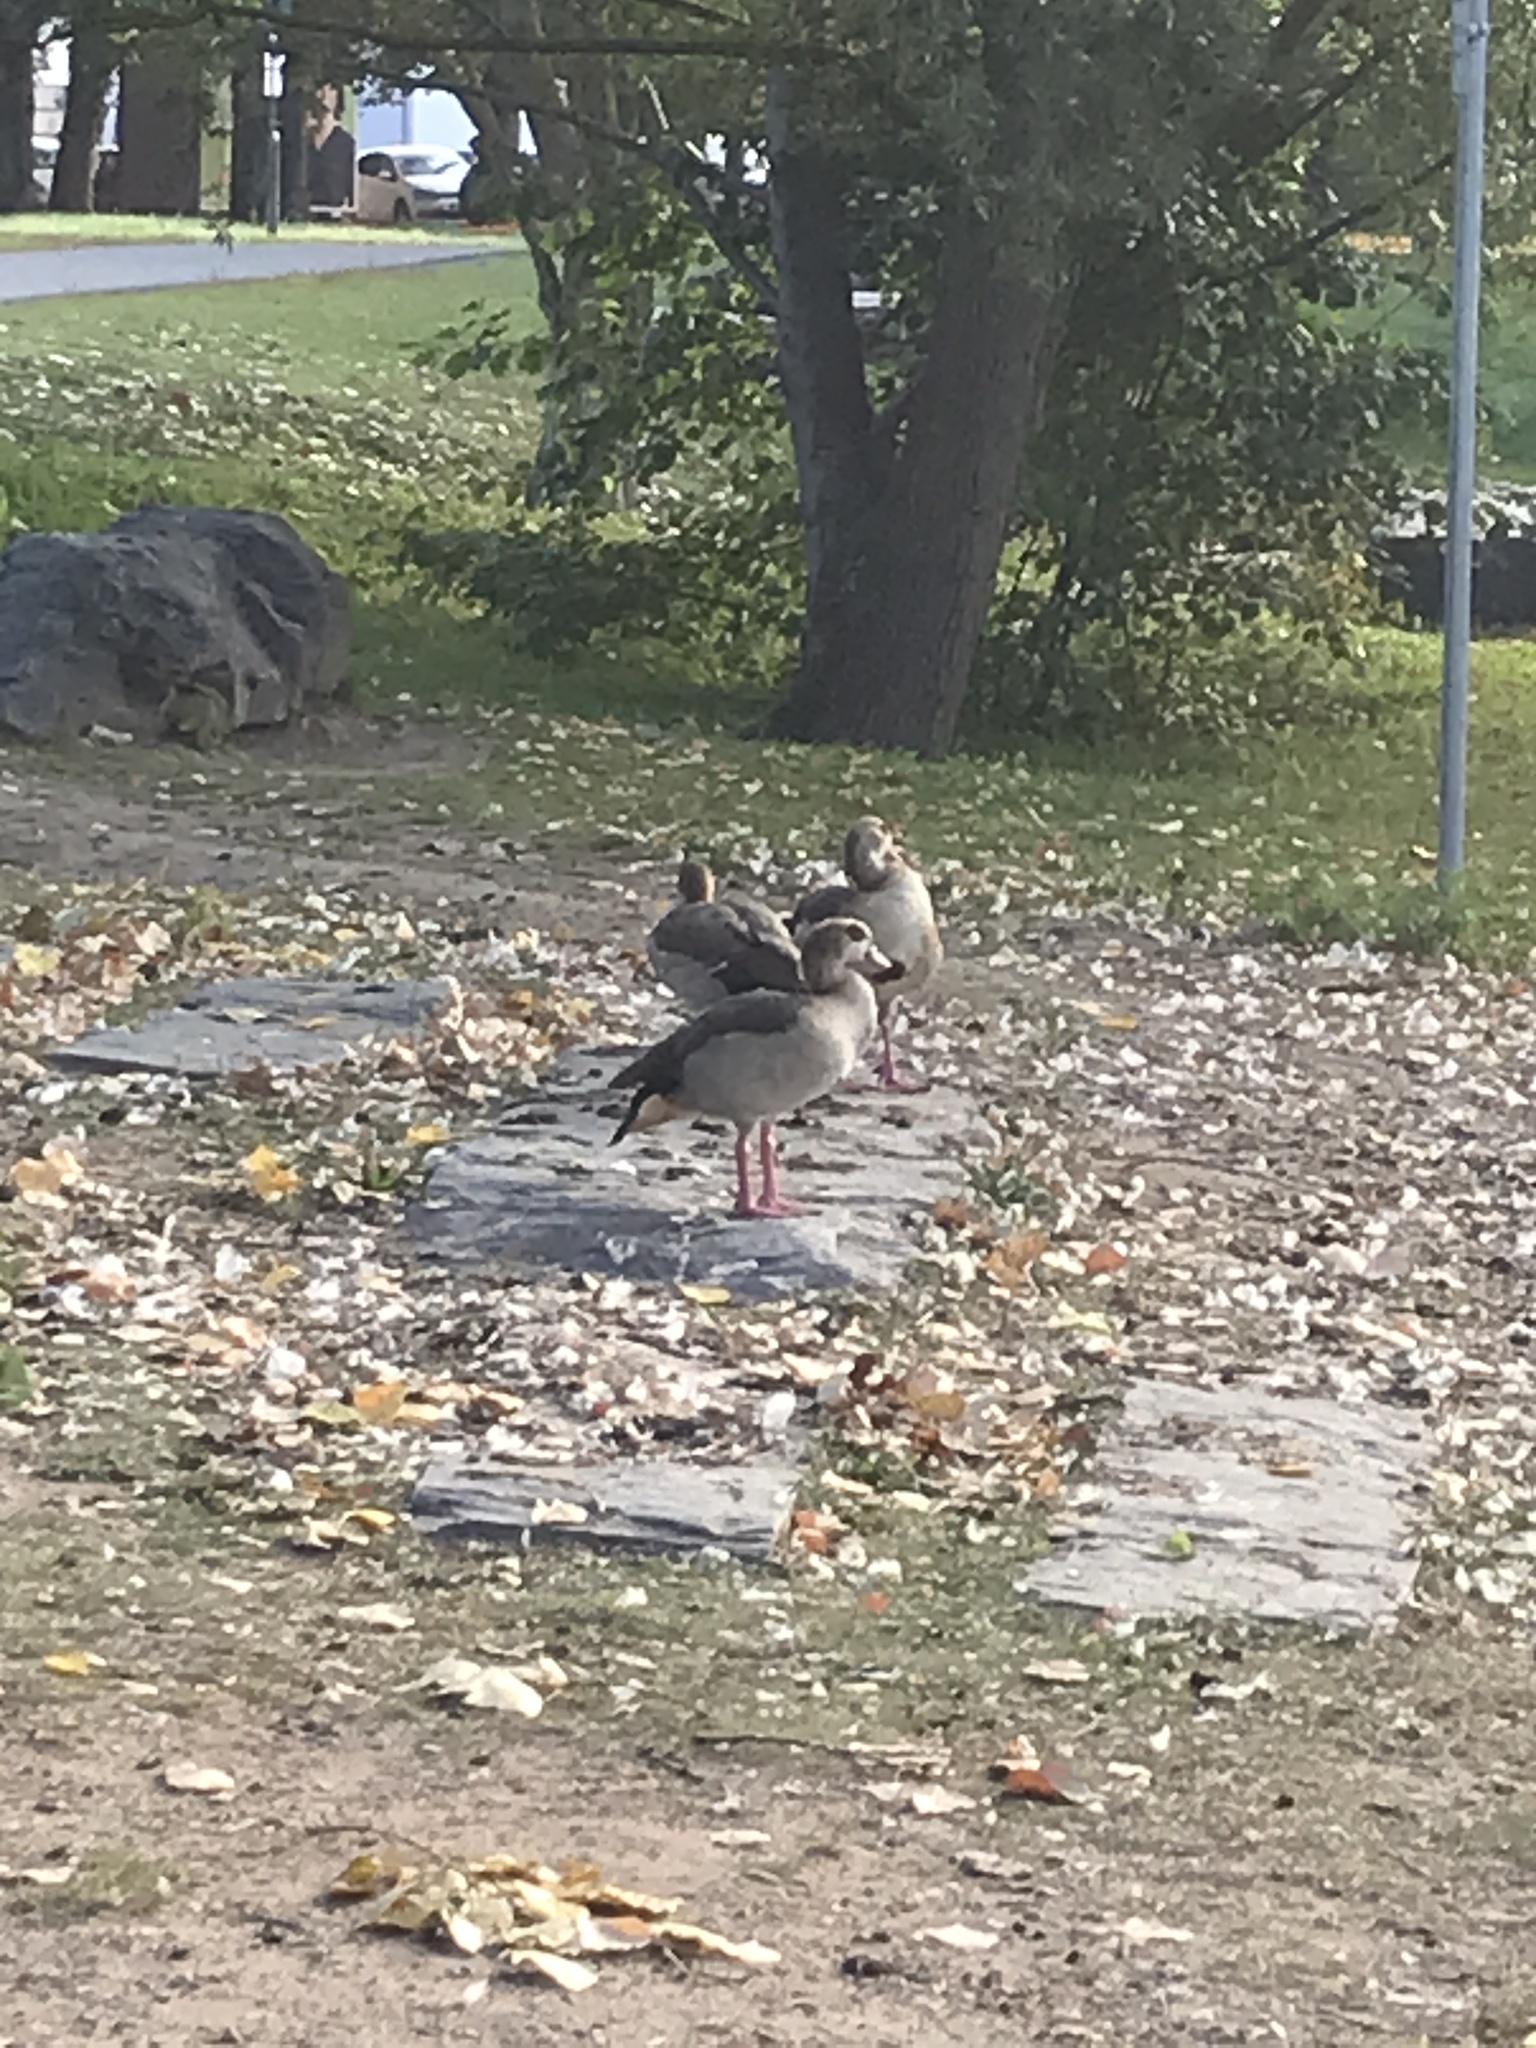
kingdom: Animalia
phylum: Chordata
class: Aves
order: Anseriformes
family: Anatidae
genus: Alopochen
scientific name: Alopochen aegyptiaca
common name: Egyptian goose
